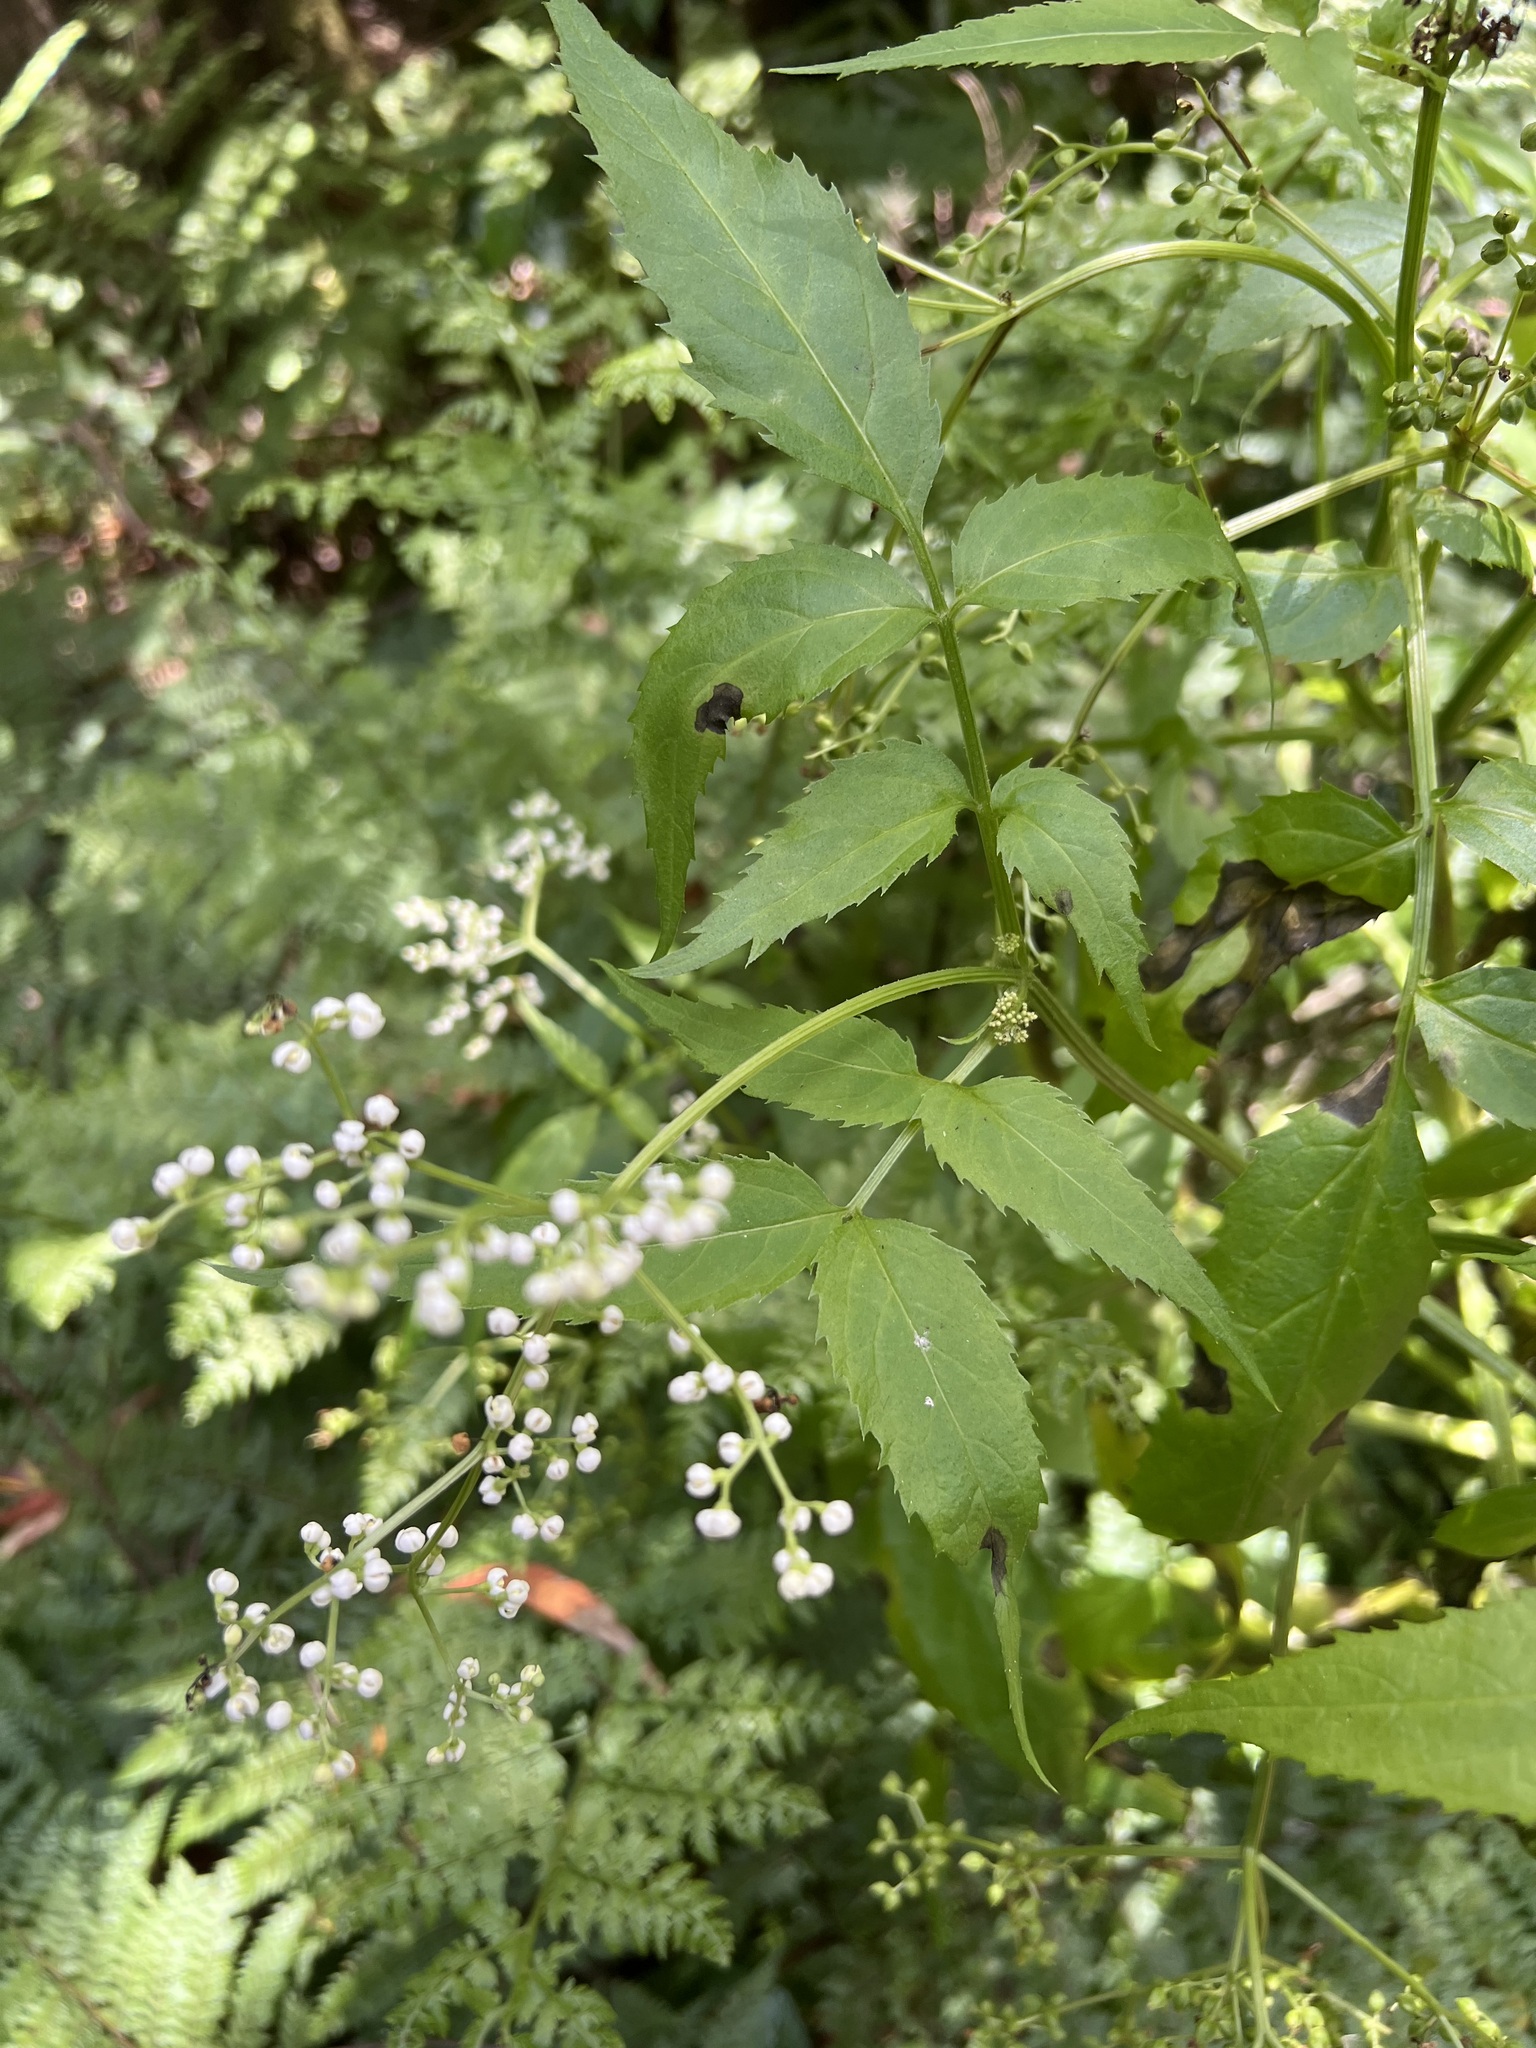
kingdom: Plantae
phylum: Tracheophyta
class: Magnoliopsida
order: Dipsacales
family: Viburnaceae
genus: Sambucus
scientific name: Sambucus gaudichaudiana
